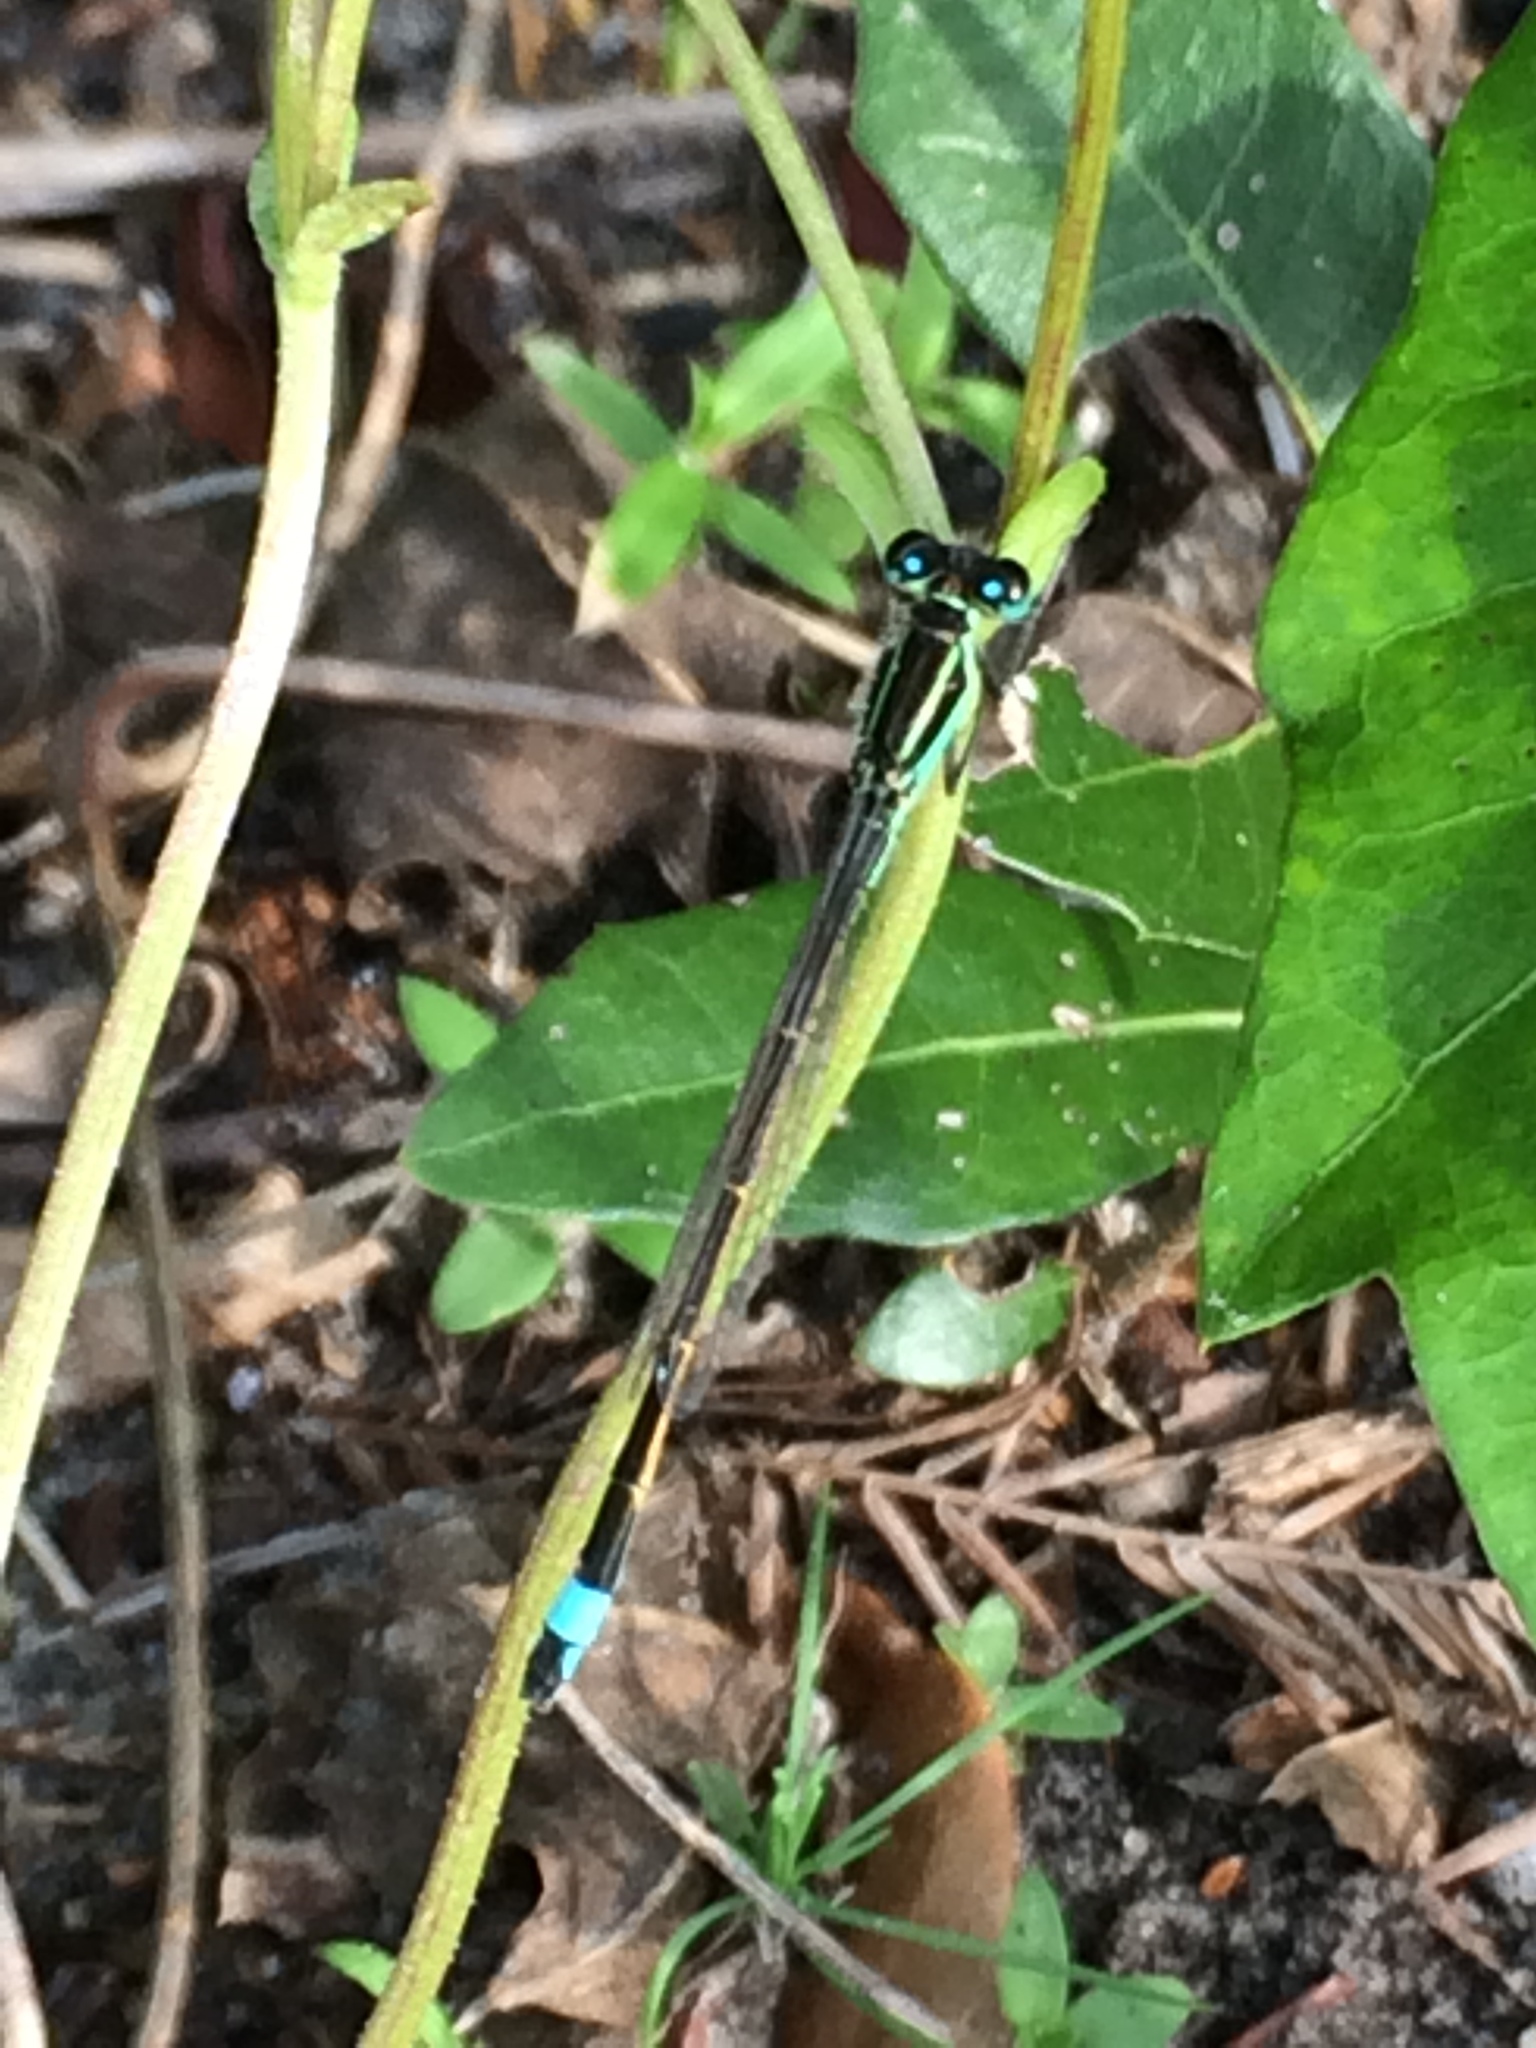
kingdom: Animalia
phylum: Arthropoda
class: Insecta
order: Odonata
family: Coenagrionidae
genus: Ischnura
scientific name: Ischnura ramburii
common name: Rambur's forktail
